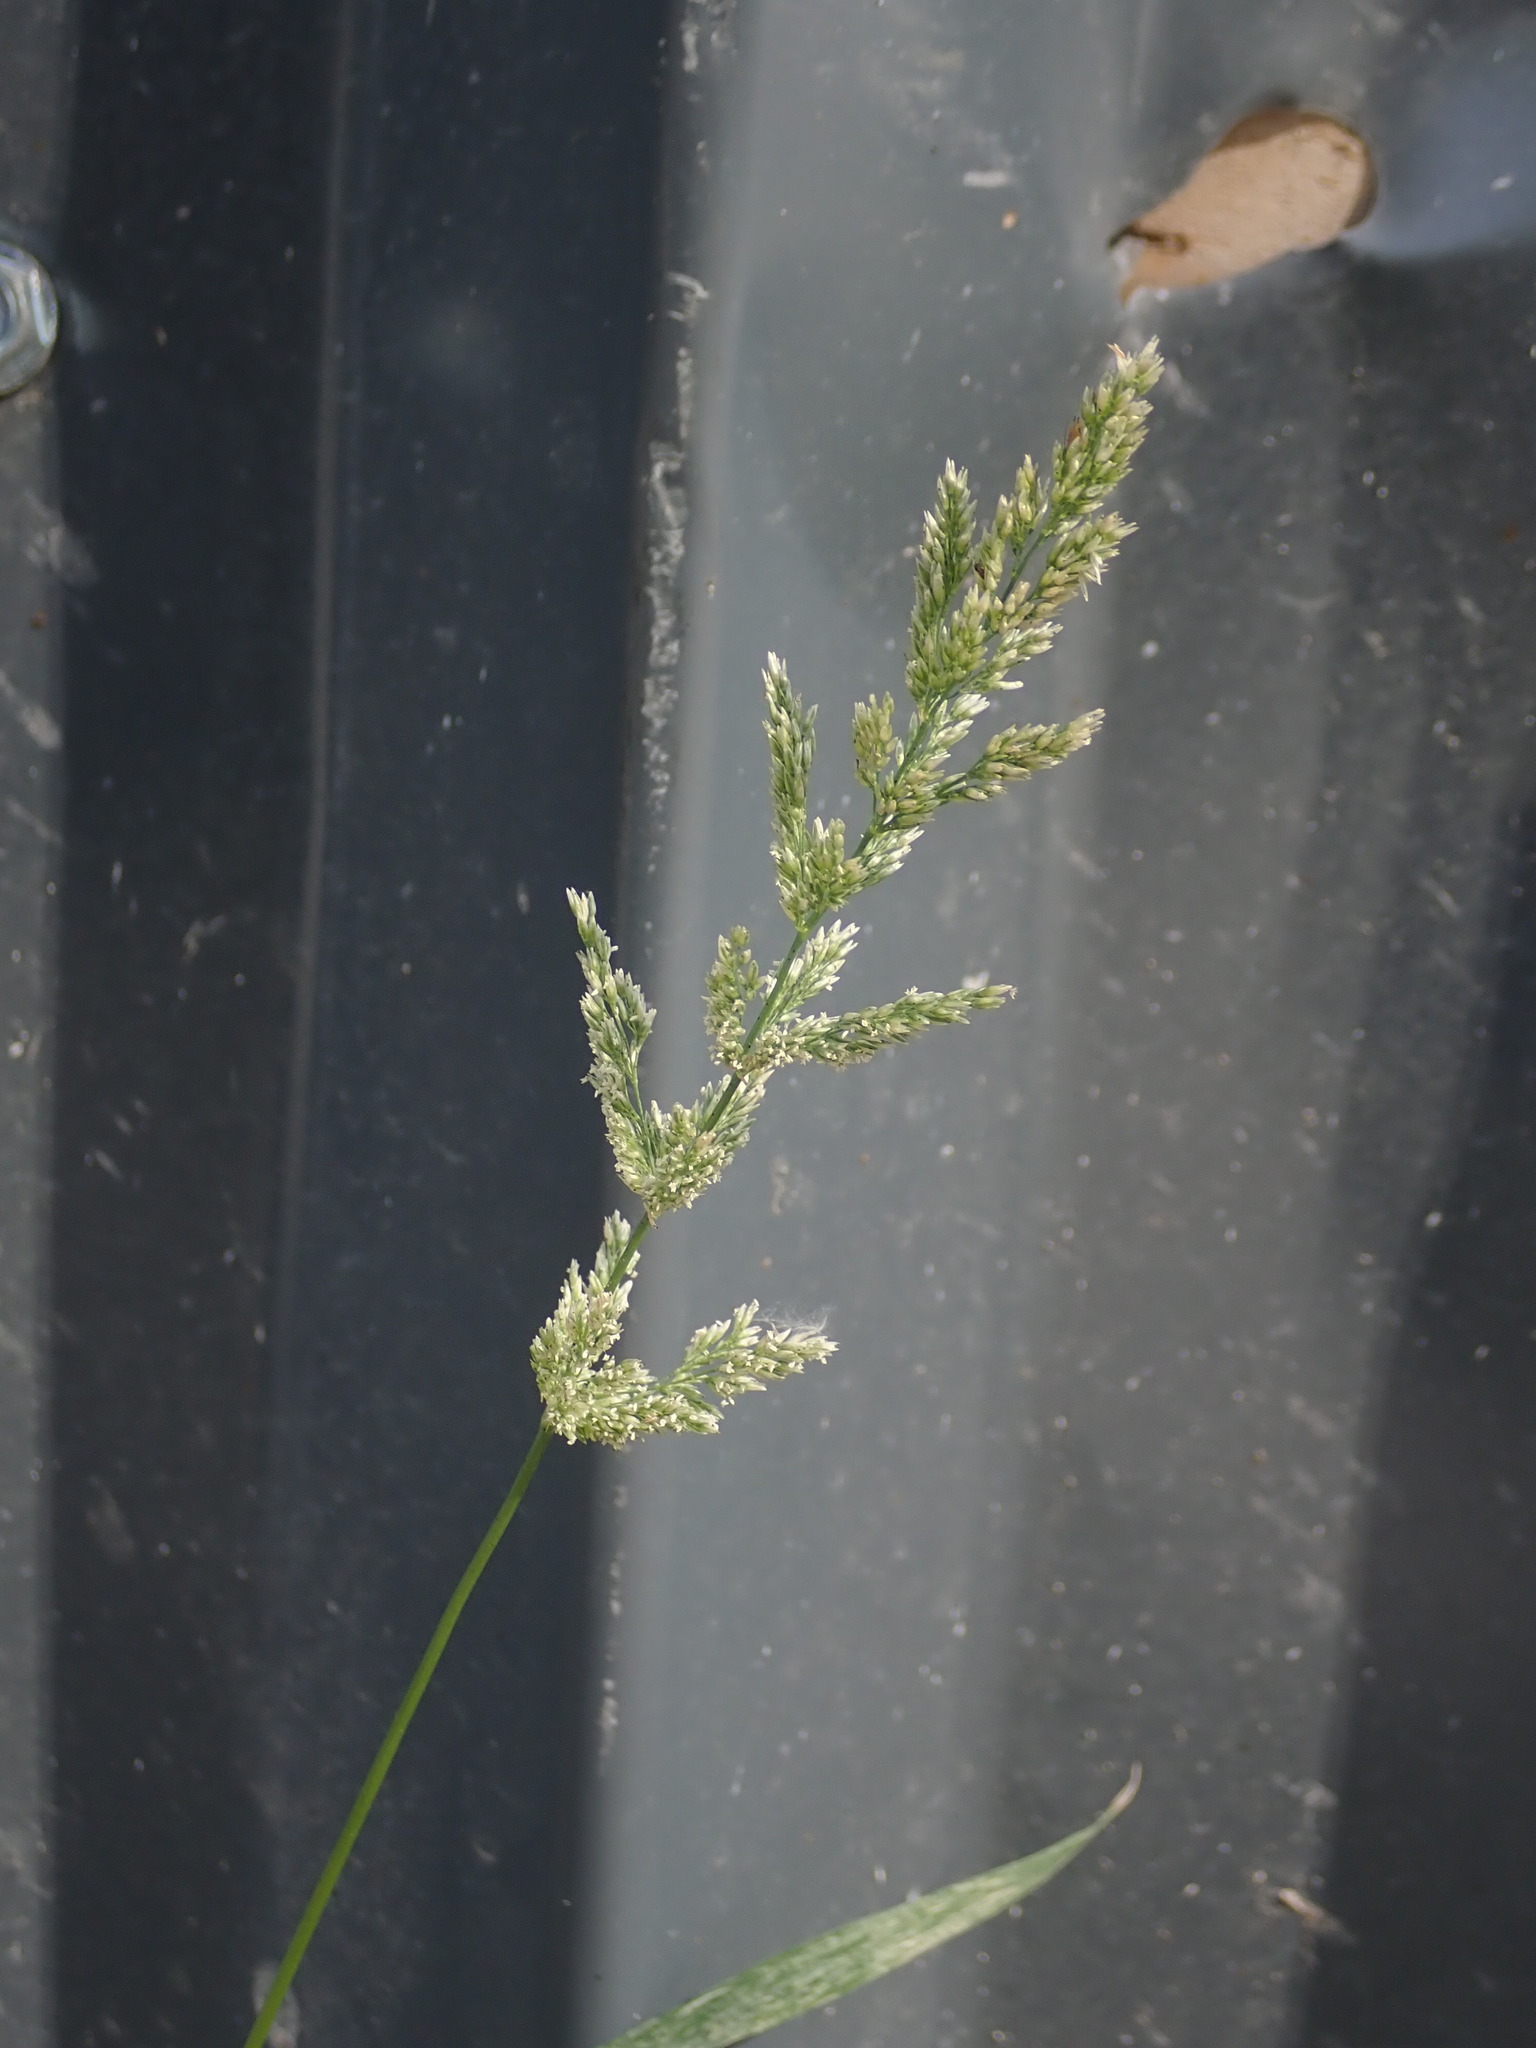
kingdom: Plantae
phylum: Tracheophyta
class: Liliopsida
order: Poales
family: Poaceae
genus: Polypogon
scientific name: Polypogon viridis
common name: Water bent
